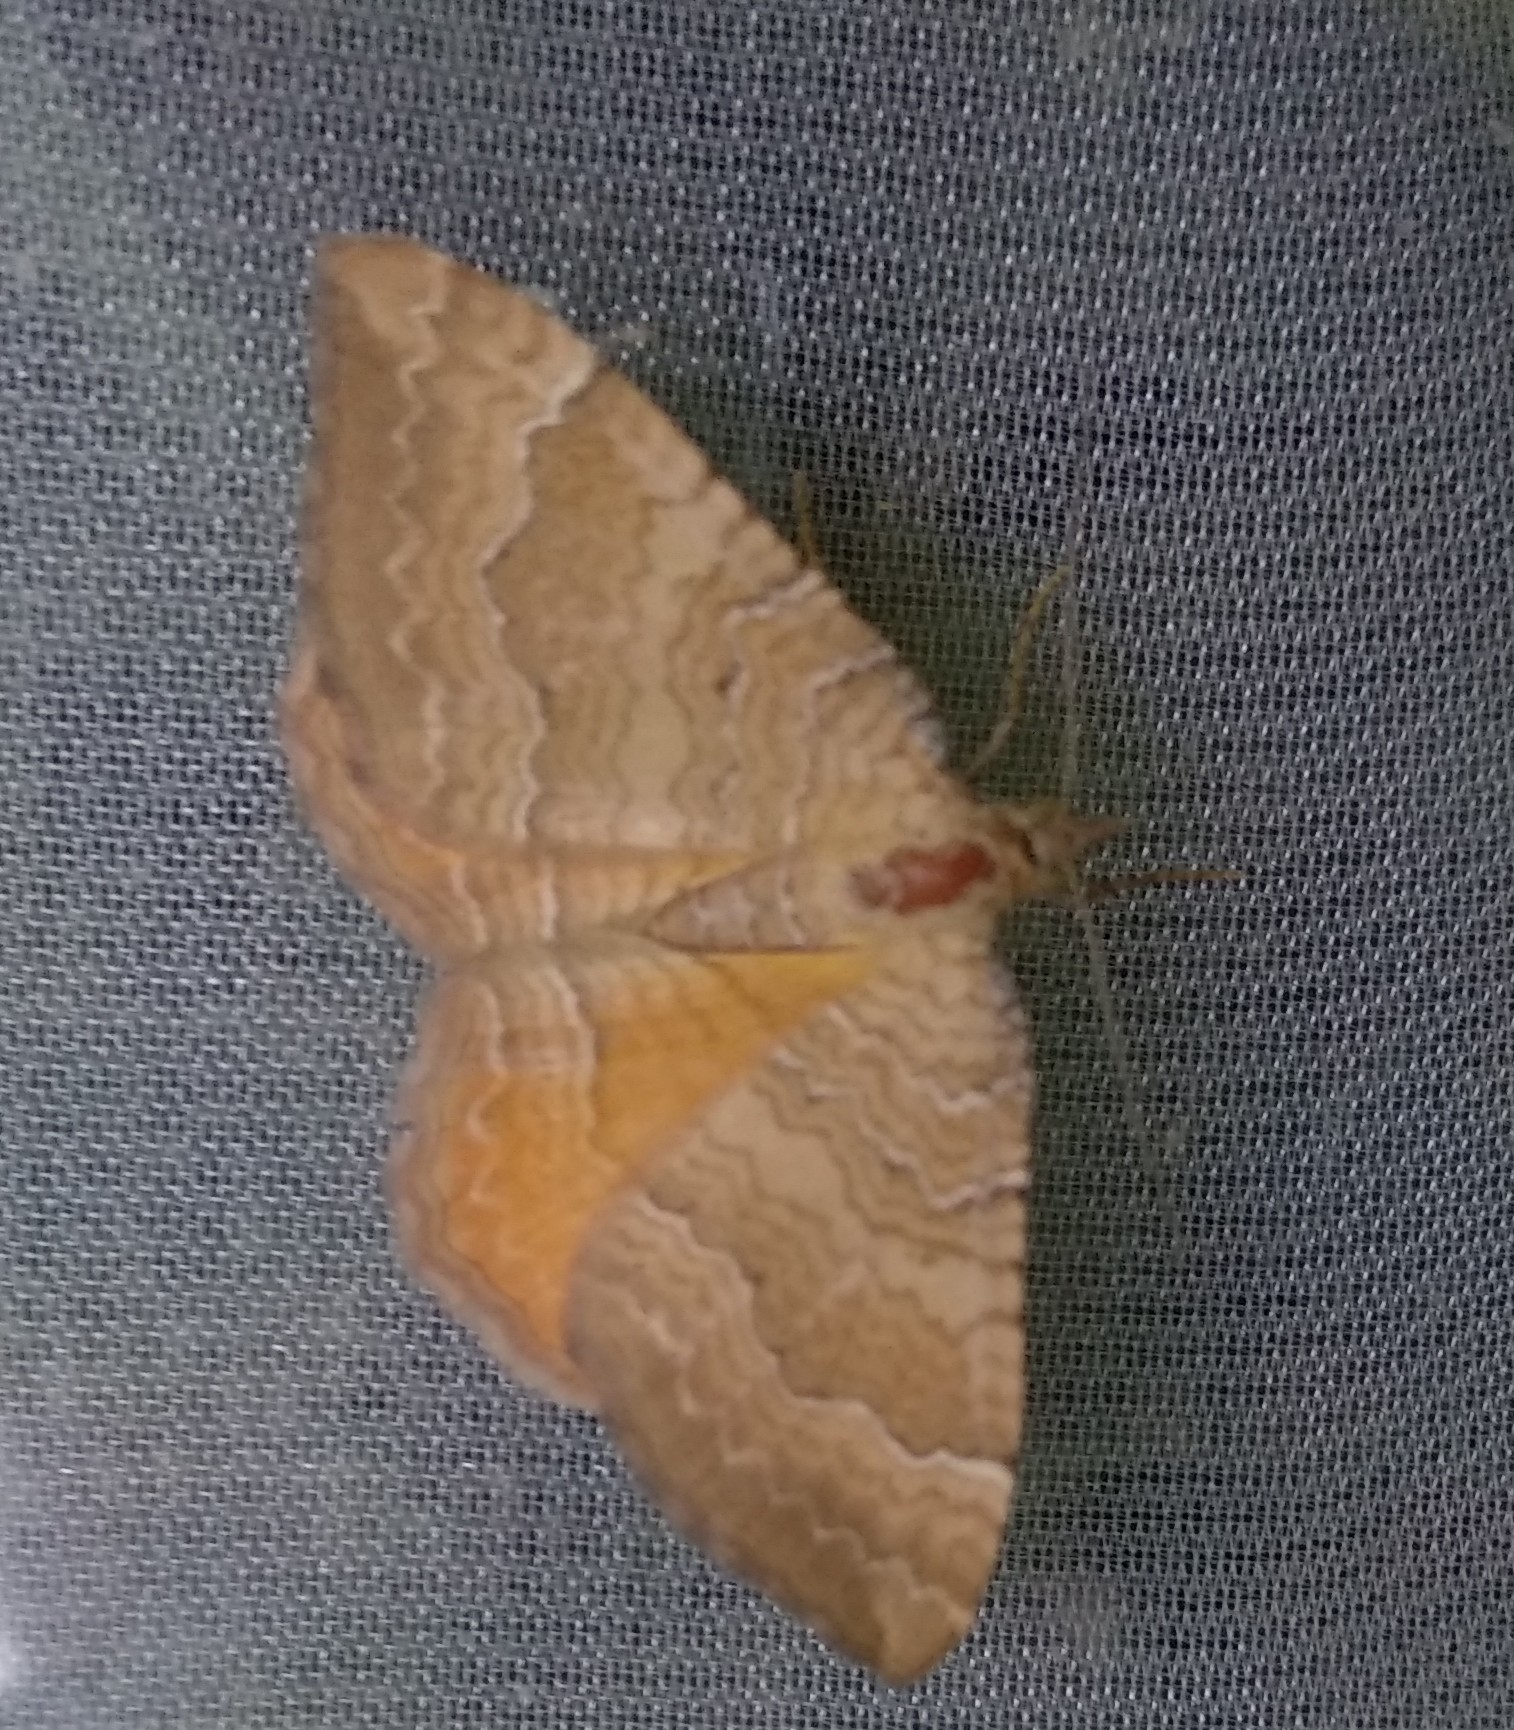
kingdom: Animalia
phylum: Arthropoda
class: Insecta
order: Lepidoptera
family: Geometridae
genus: Camptogramma
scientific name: Camptogramma bilineata
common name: Yellow shell
